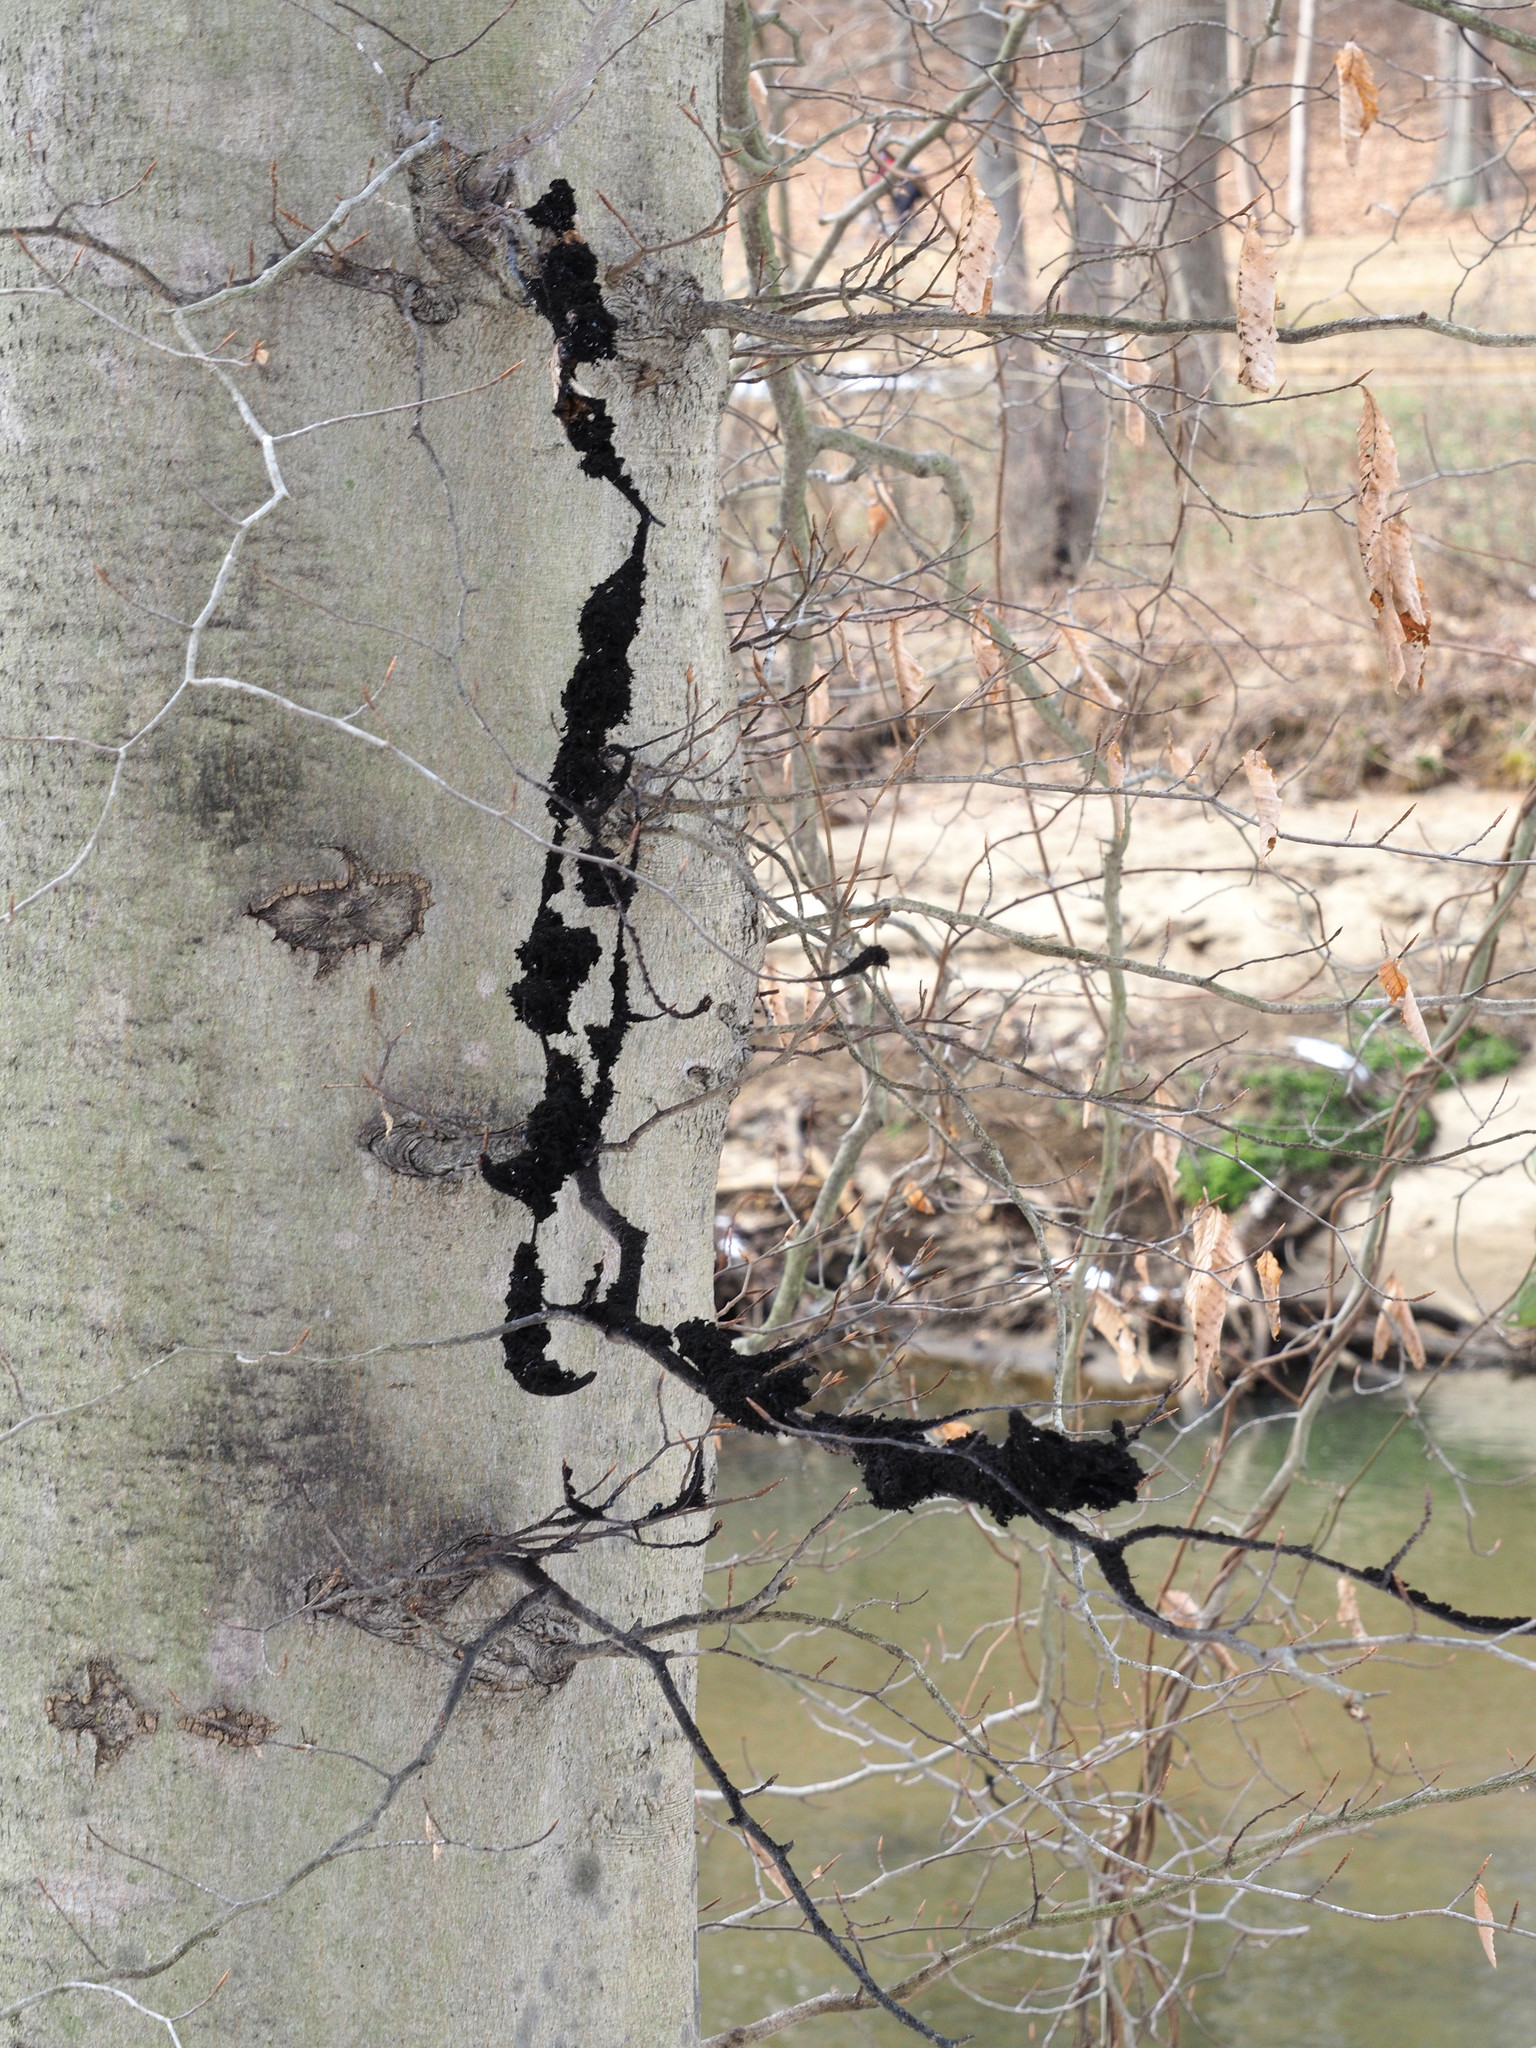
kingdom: Fungi
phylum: Ascomycota
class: Dothideomycetes
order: Capnodiales
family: Capnodiaceae
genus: Scorias
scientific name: Scorias spongiosa
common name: Black sooty mold
